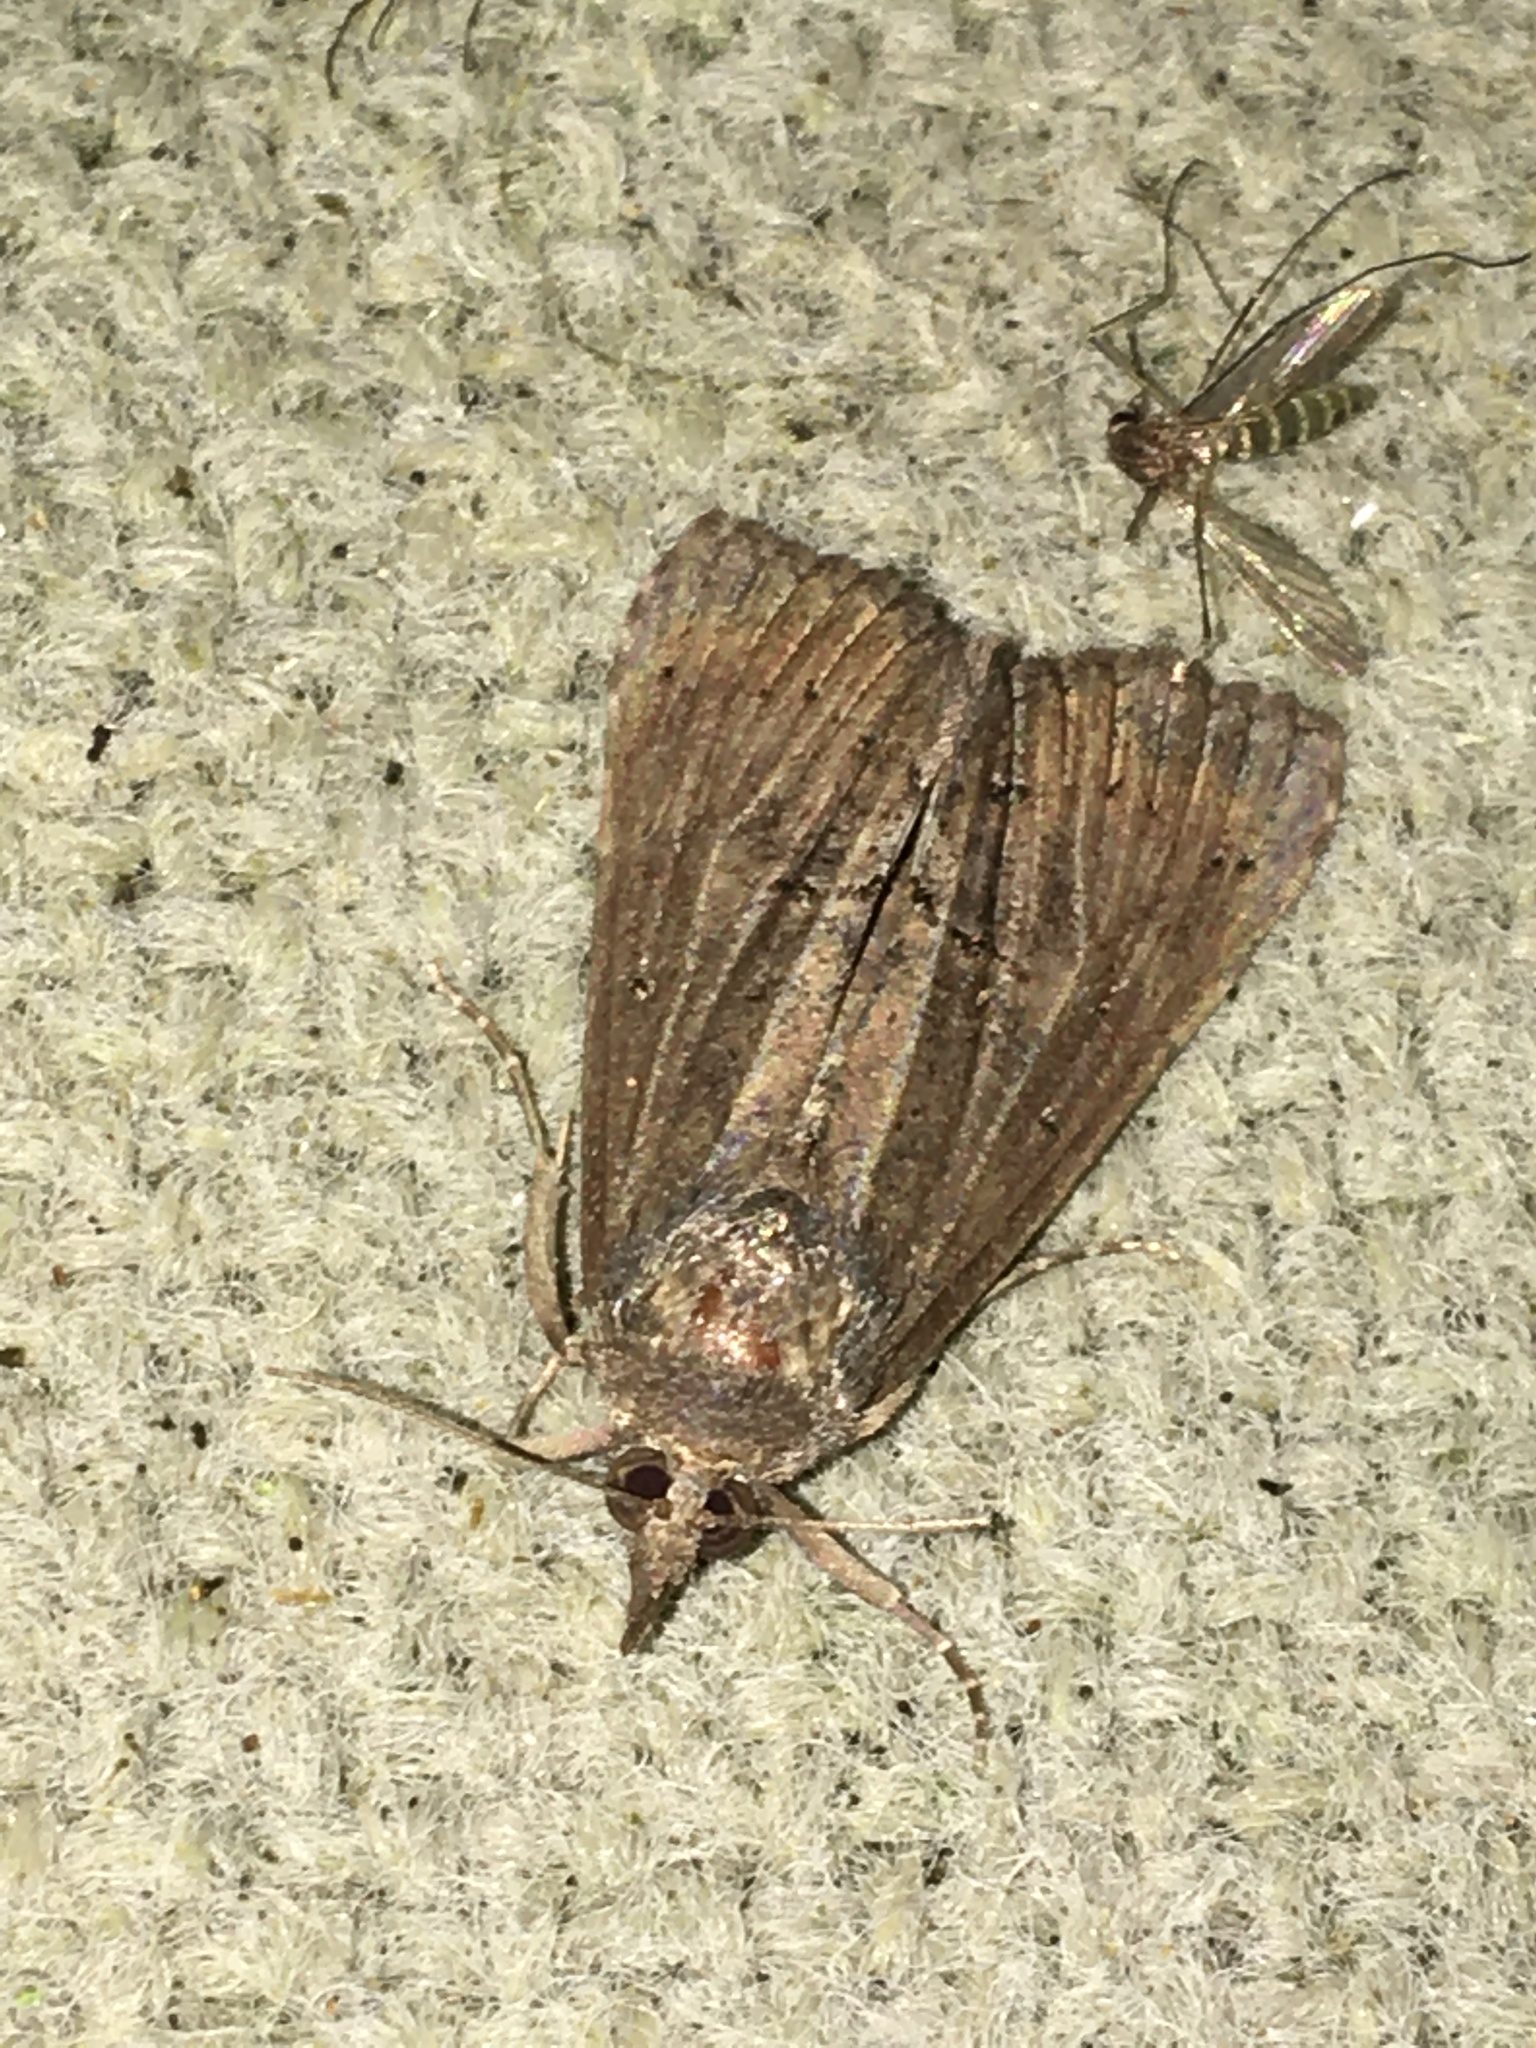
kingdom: Animalia
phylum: Arthropoda
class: Insecta
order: Lepidoptera
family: Erebidae
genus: Hypena
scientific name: Hypena scabra
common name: Green cloverworm
